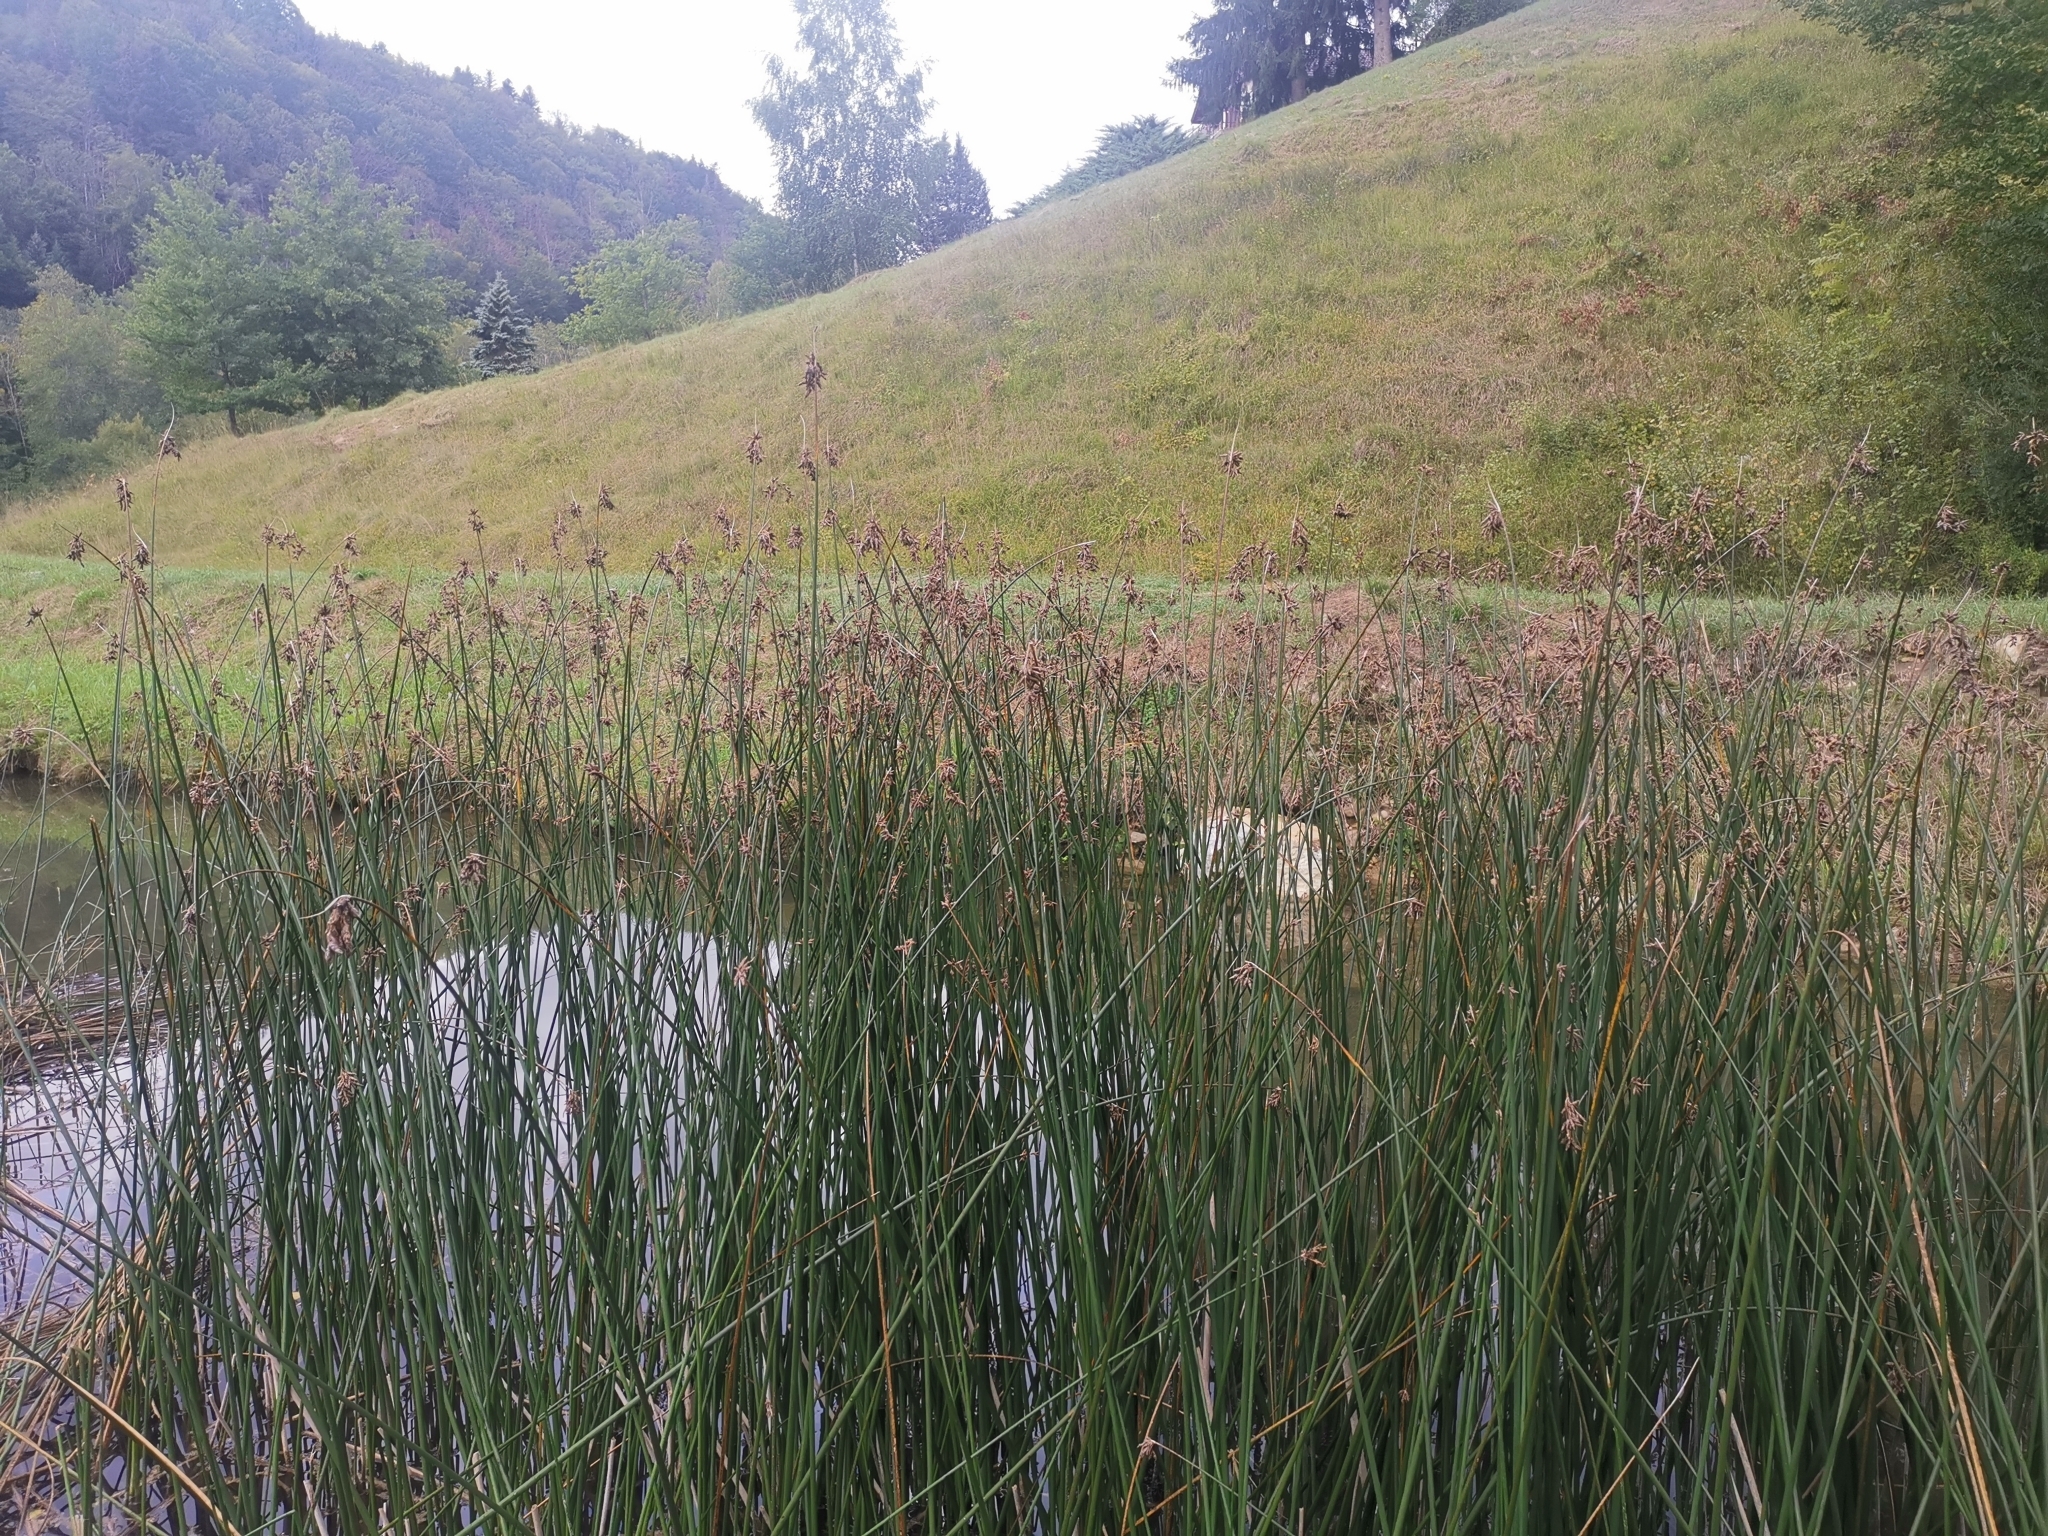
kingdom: Plantae
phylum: Tracheophyta
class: Liliopsida
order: Poales
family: Cyperaceae
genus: Schoenoplectus
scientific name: Schoenoplectus lacustris
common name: Common club-rush
